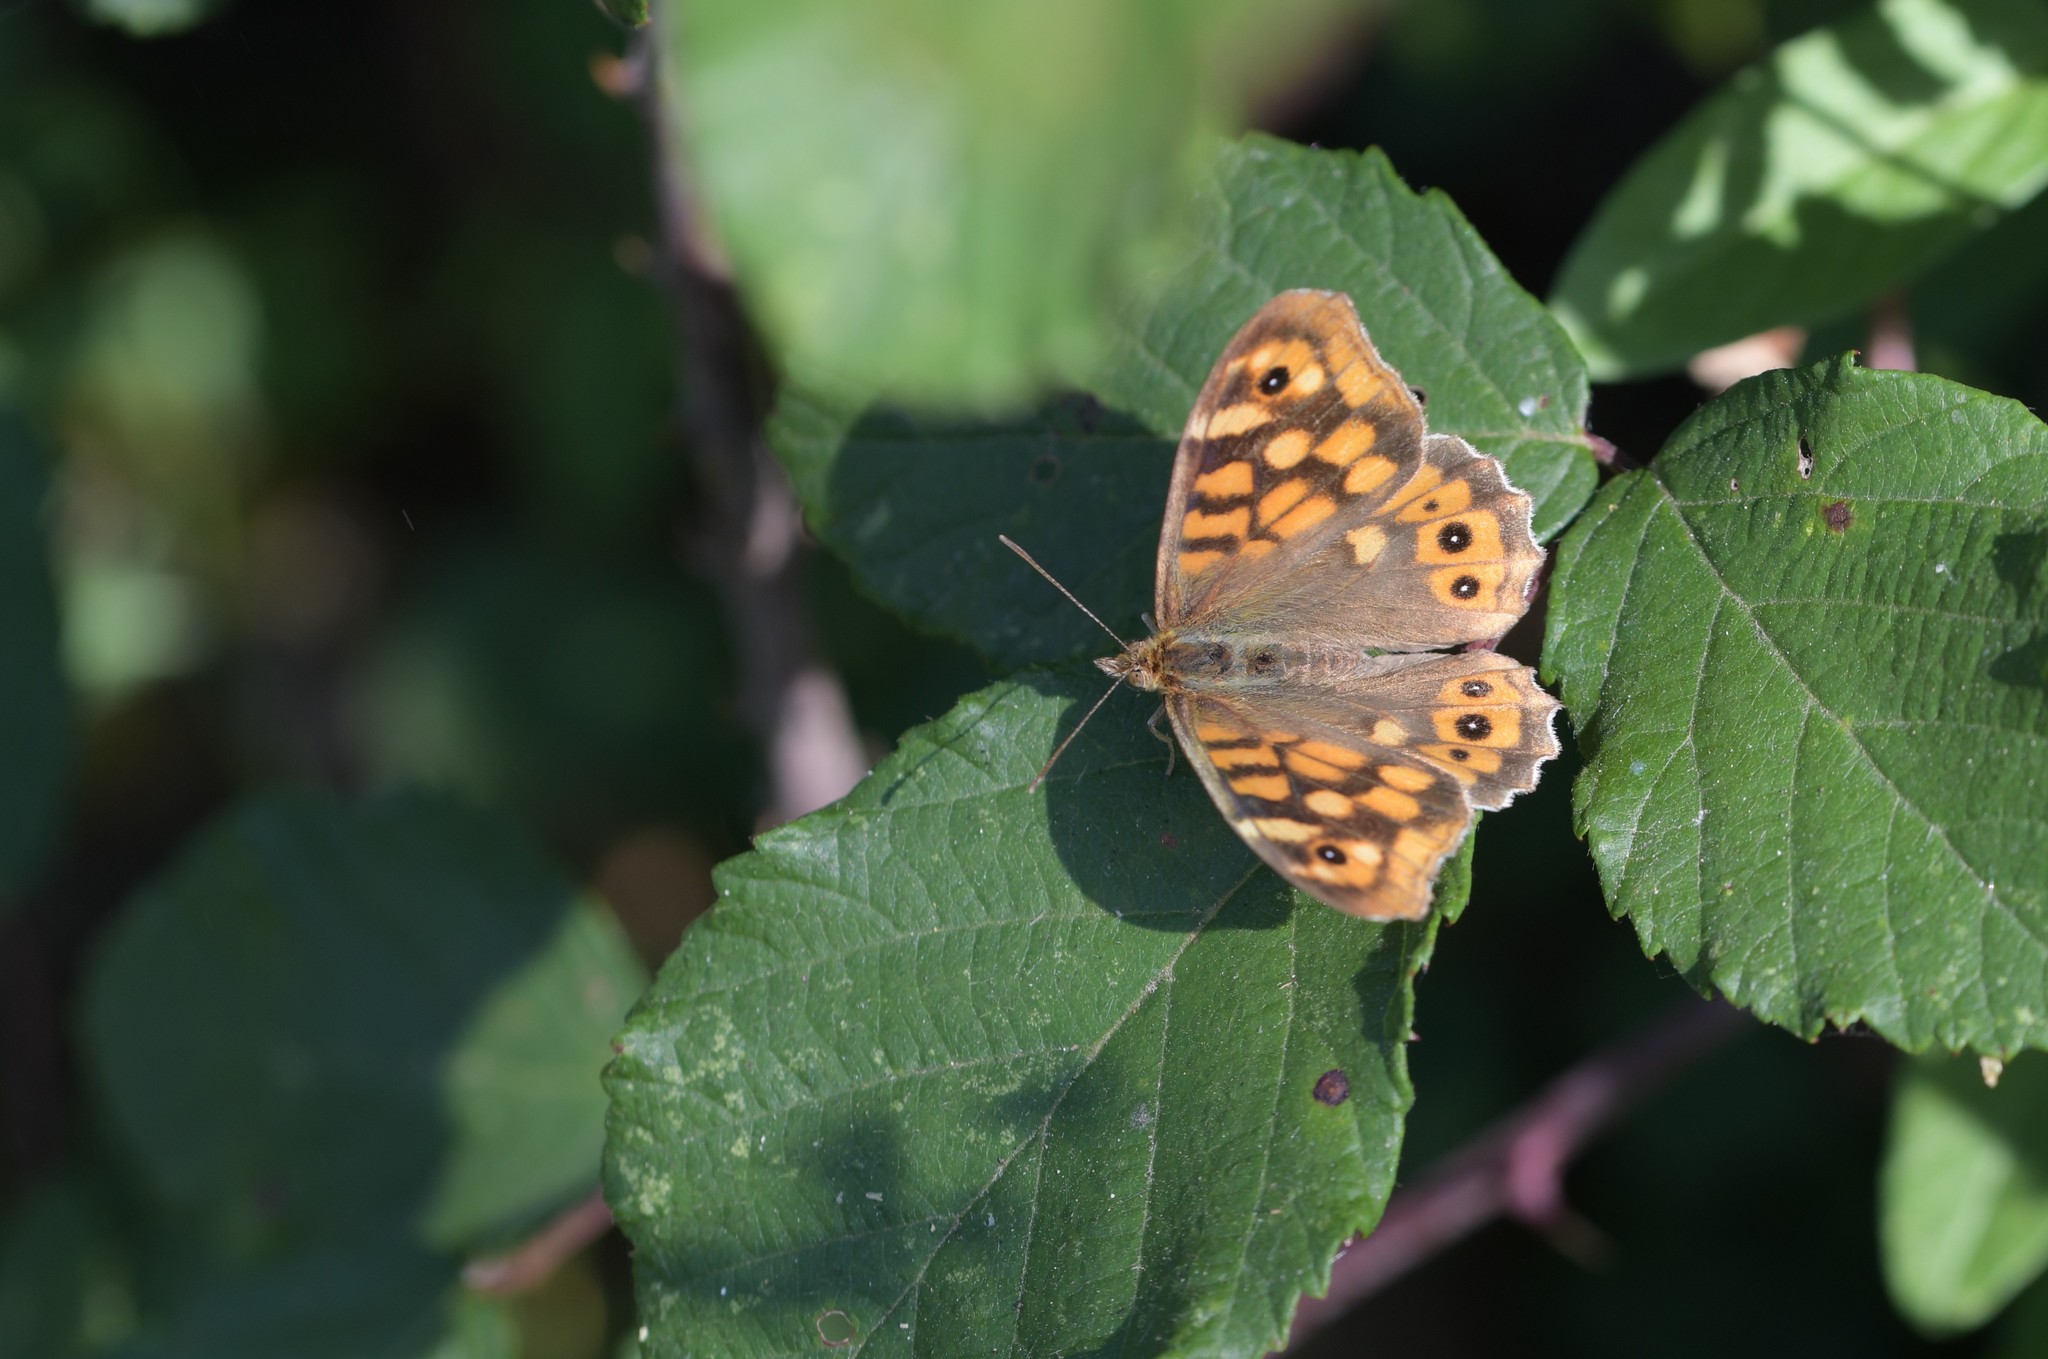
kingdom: Animalia
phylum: Arthropoda
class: Insecta
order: Lepidoptera
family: Nymphalidae
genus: Pararge
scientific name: Pararge aegeria
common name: Speckled wood
